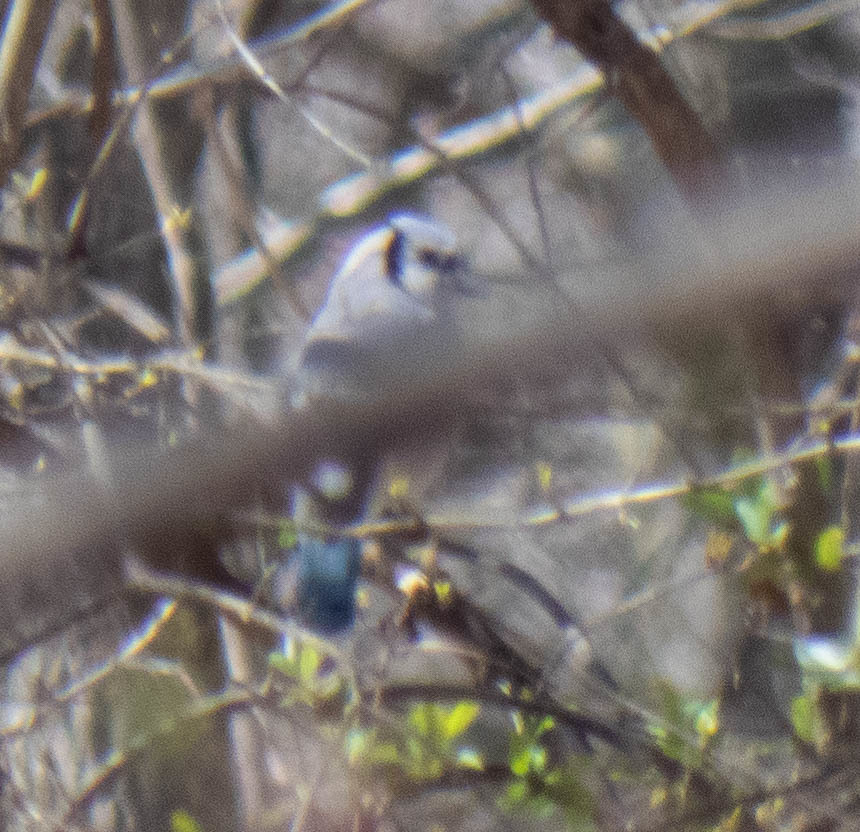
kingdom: Animalia
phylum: Chordata
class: Aves
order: Passeriformes
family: Corvidae
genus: Cyanocitta
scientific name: Cyanocitta cristata
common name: Blue jay
